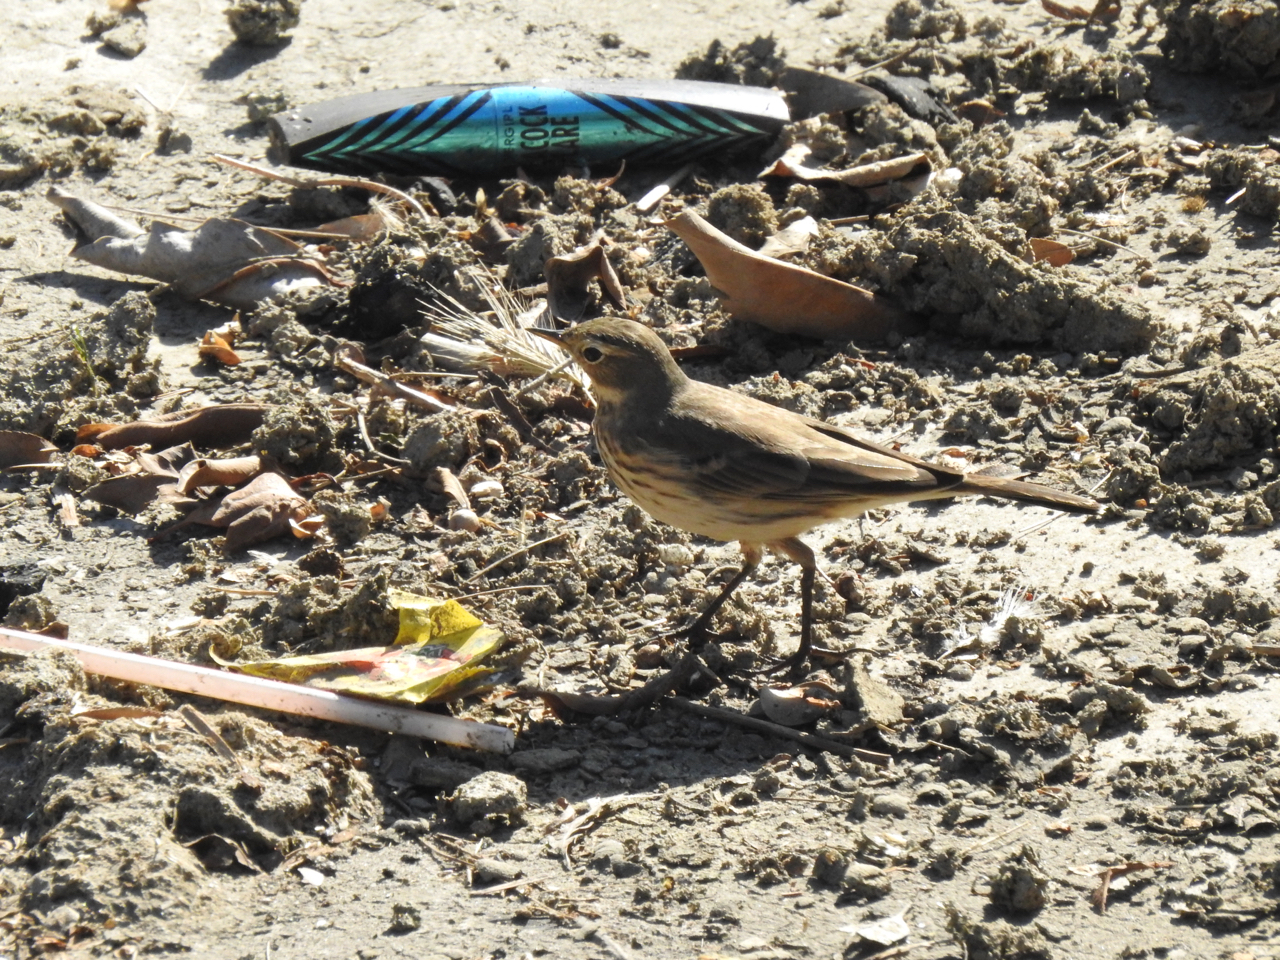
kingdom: Animalia
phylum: Chordata
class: Aves
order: Passeriformes
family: Motacillidae
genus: Anthus
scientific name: Anthus rubescens
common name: Buff-bellied pipit
